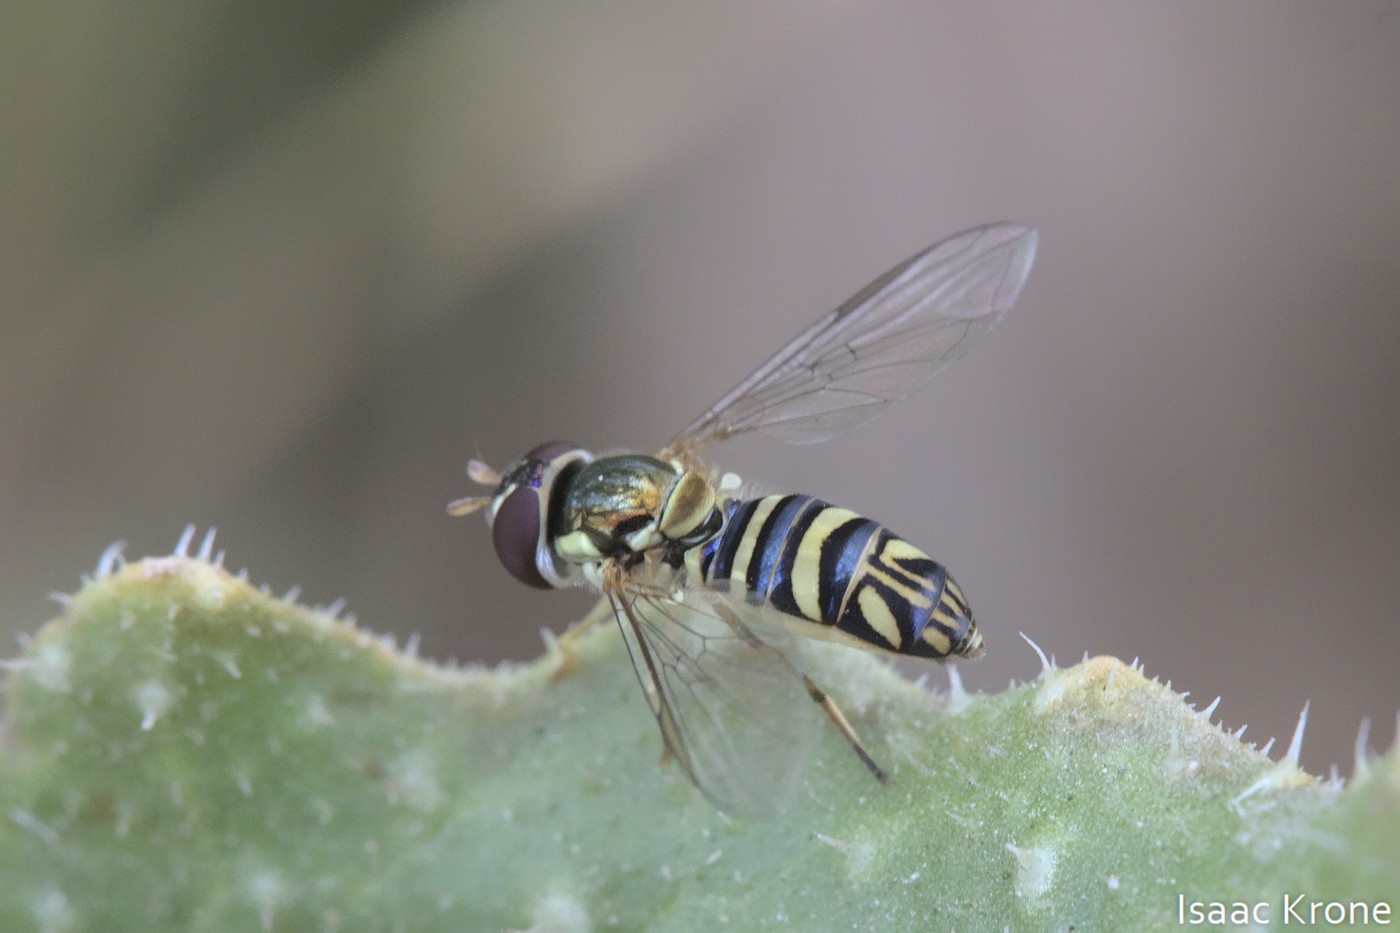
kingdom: Animalia
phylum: Arthropoda
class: Insecta
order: Diptera
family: Syrphidae
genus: Allograpta
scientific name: Allograpta obliqua
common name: Common oblique syrphid
